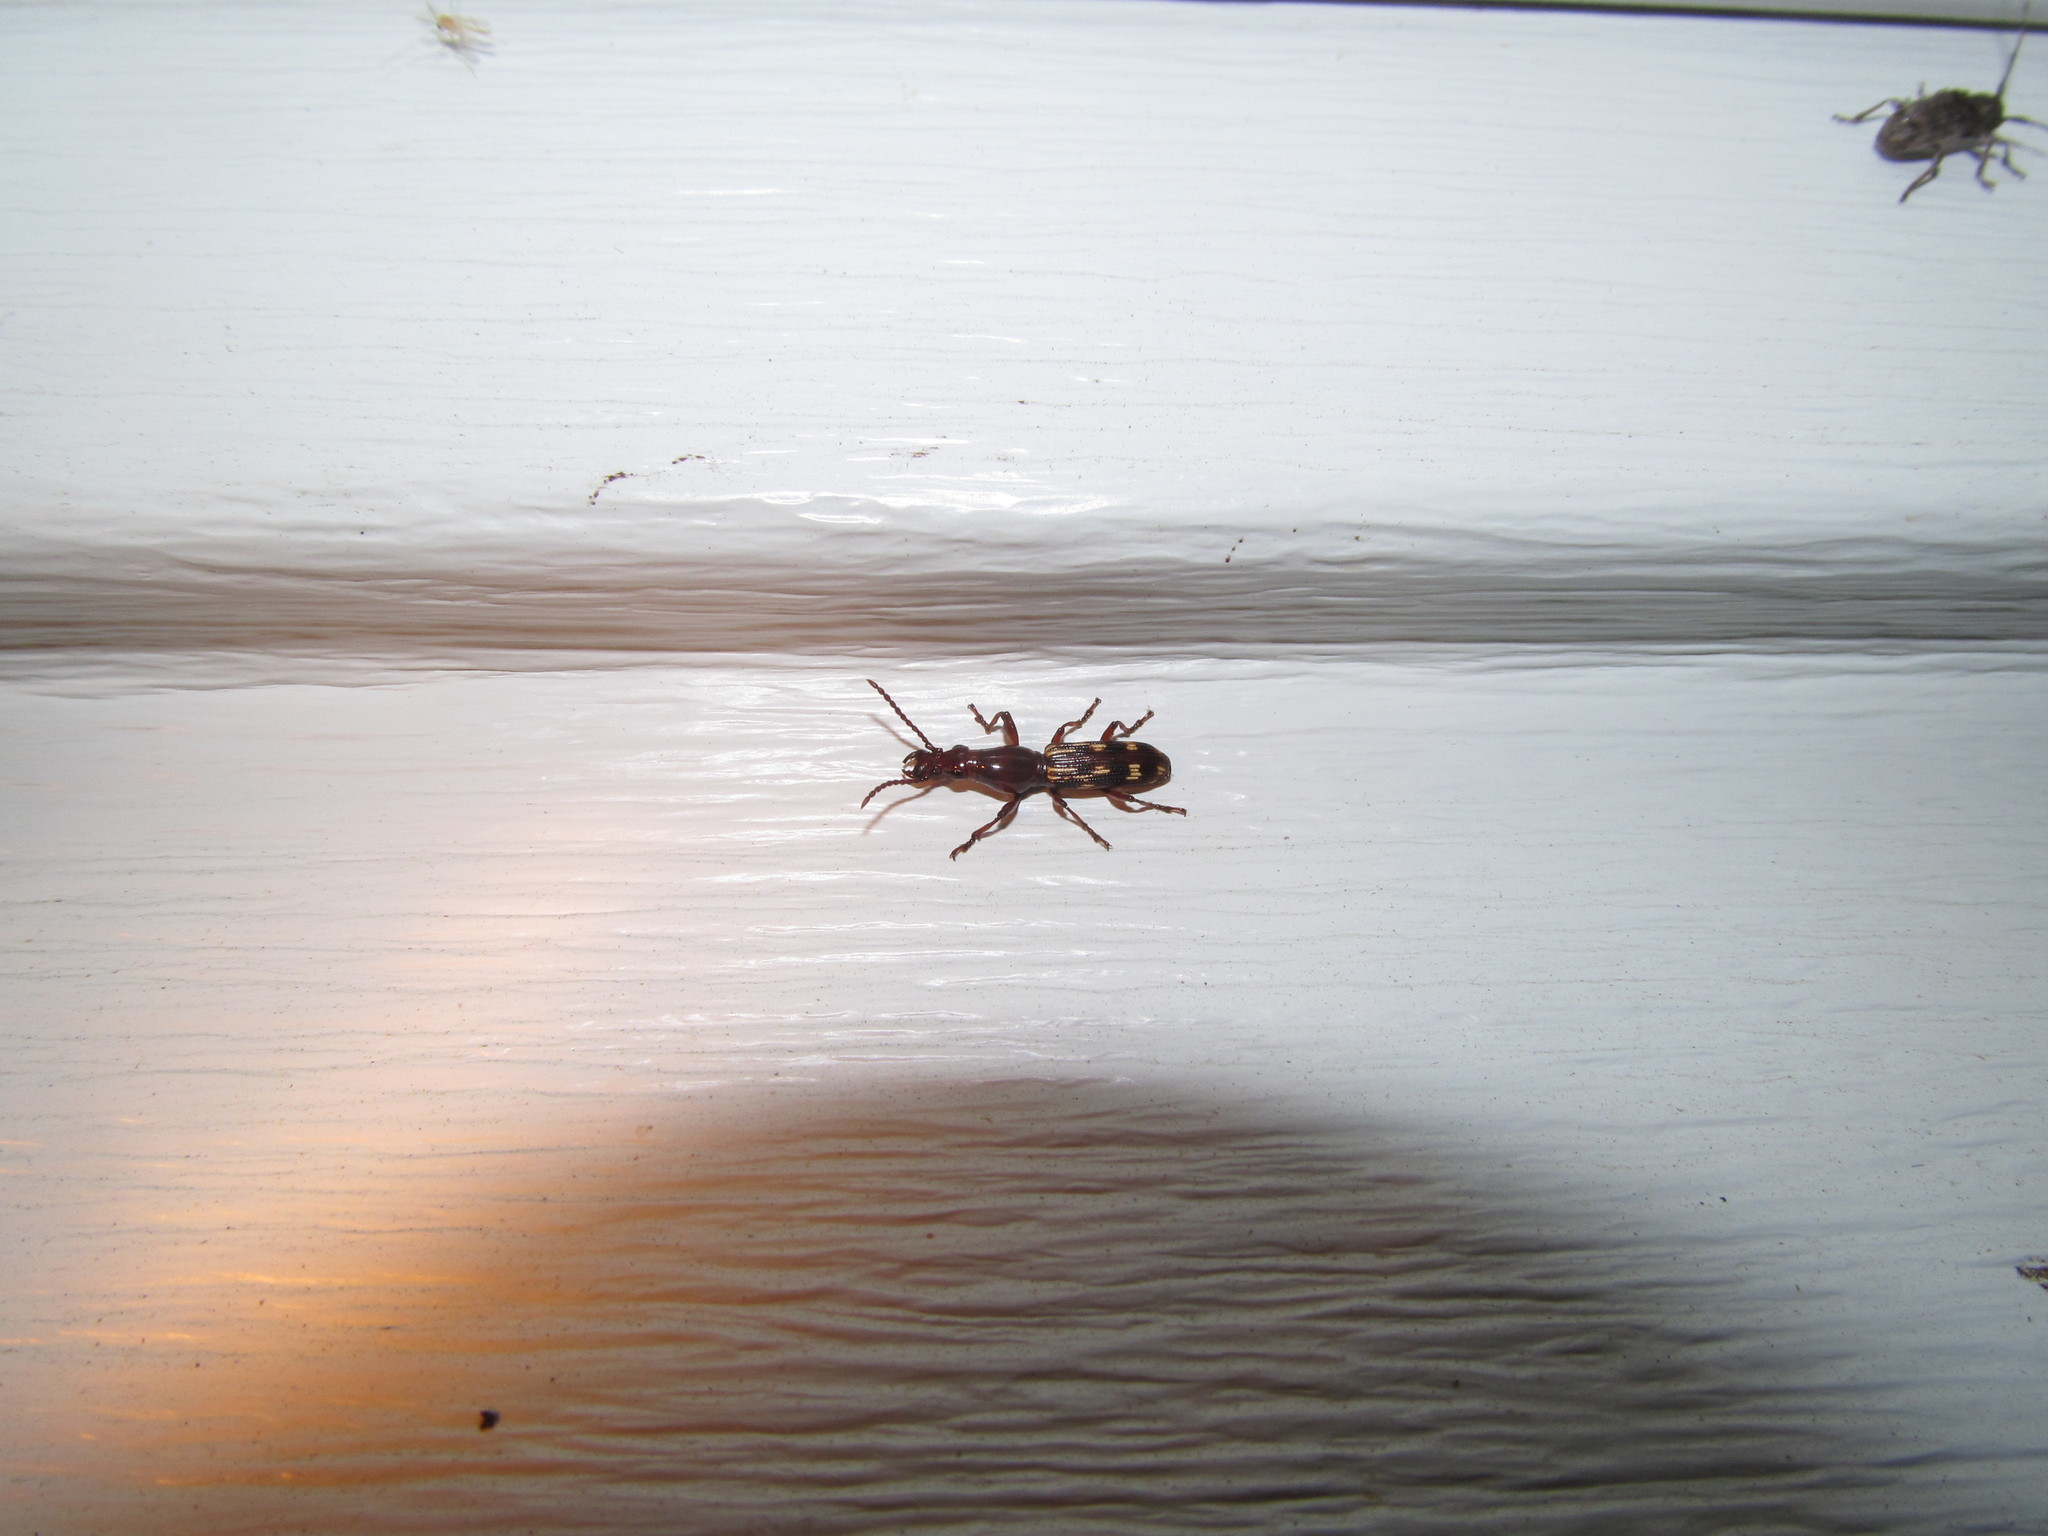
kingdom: Animalia
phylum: Arthropoda
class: Insecta
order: Coleoptera
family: Brentidae
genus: Arrenodes
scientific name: Arrenodes minutus
